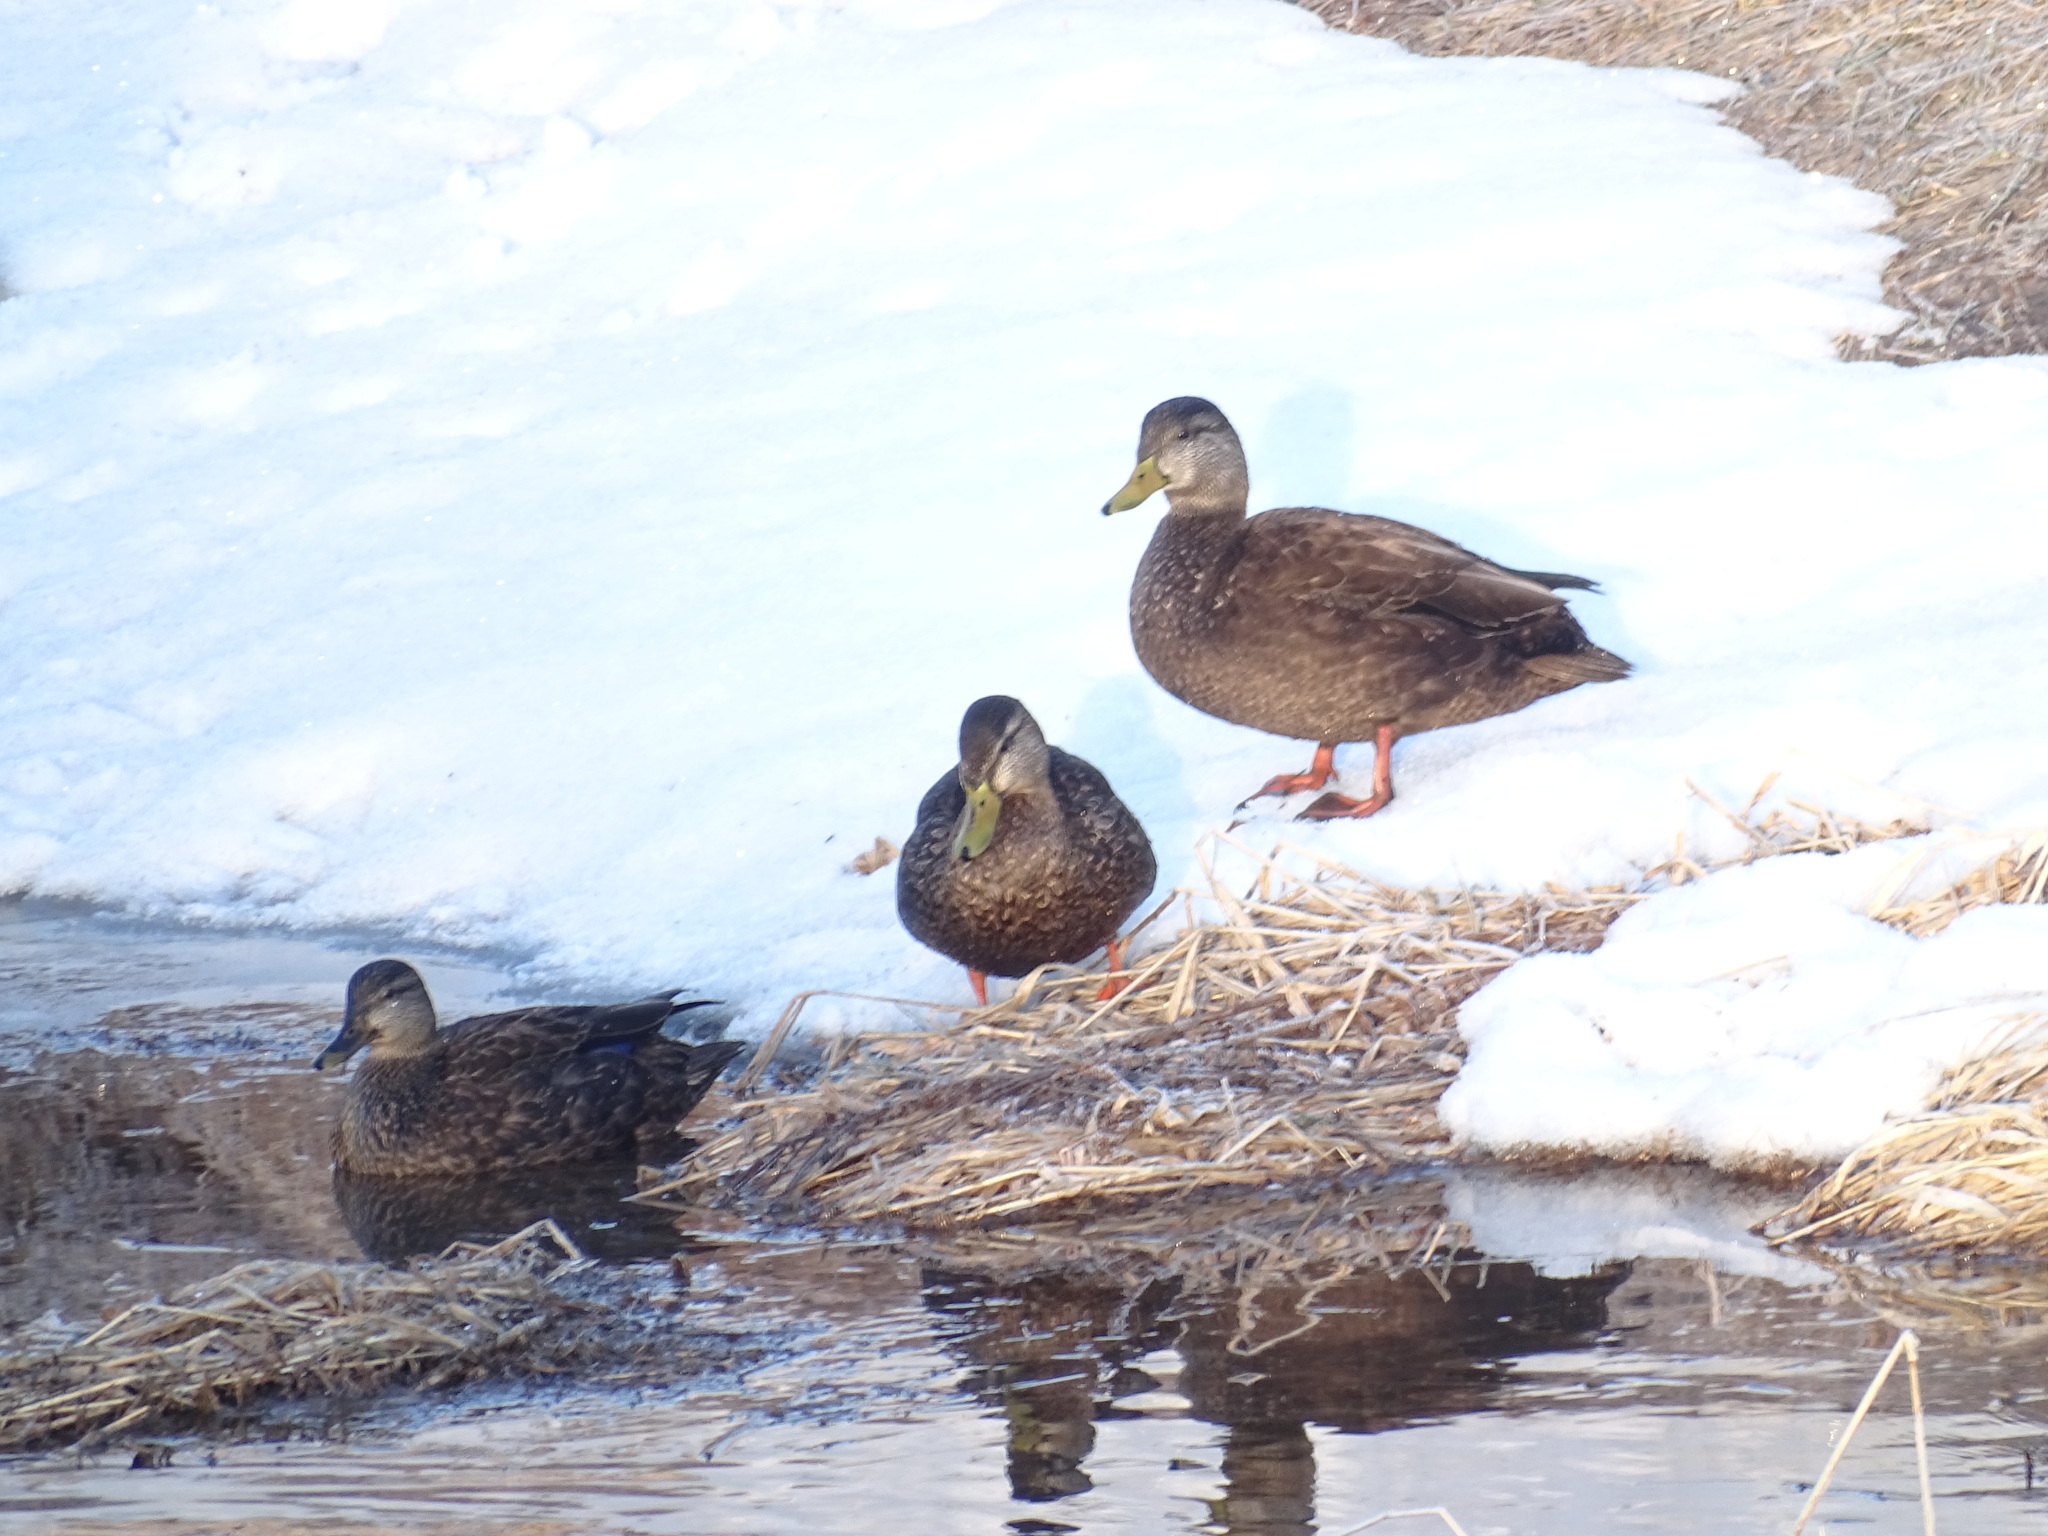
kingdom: Animalia
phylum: Chordata
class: Aves
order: Anseriformes
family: Anatidae
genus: Anas
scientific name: Anas rubripes
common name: American black duck
